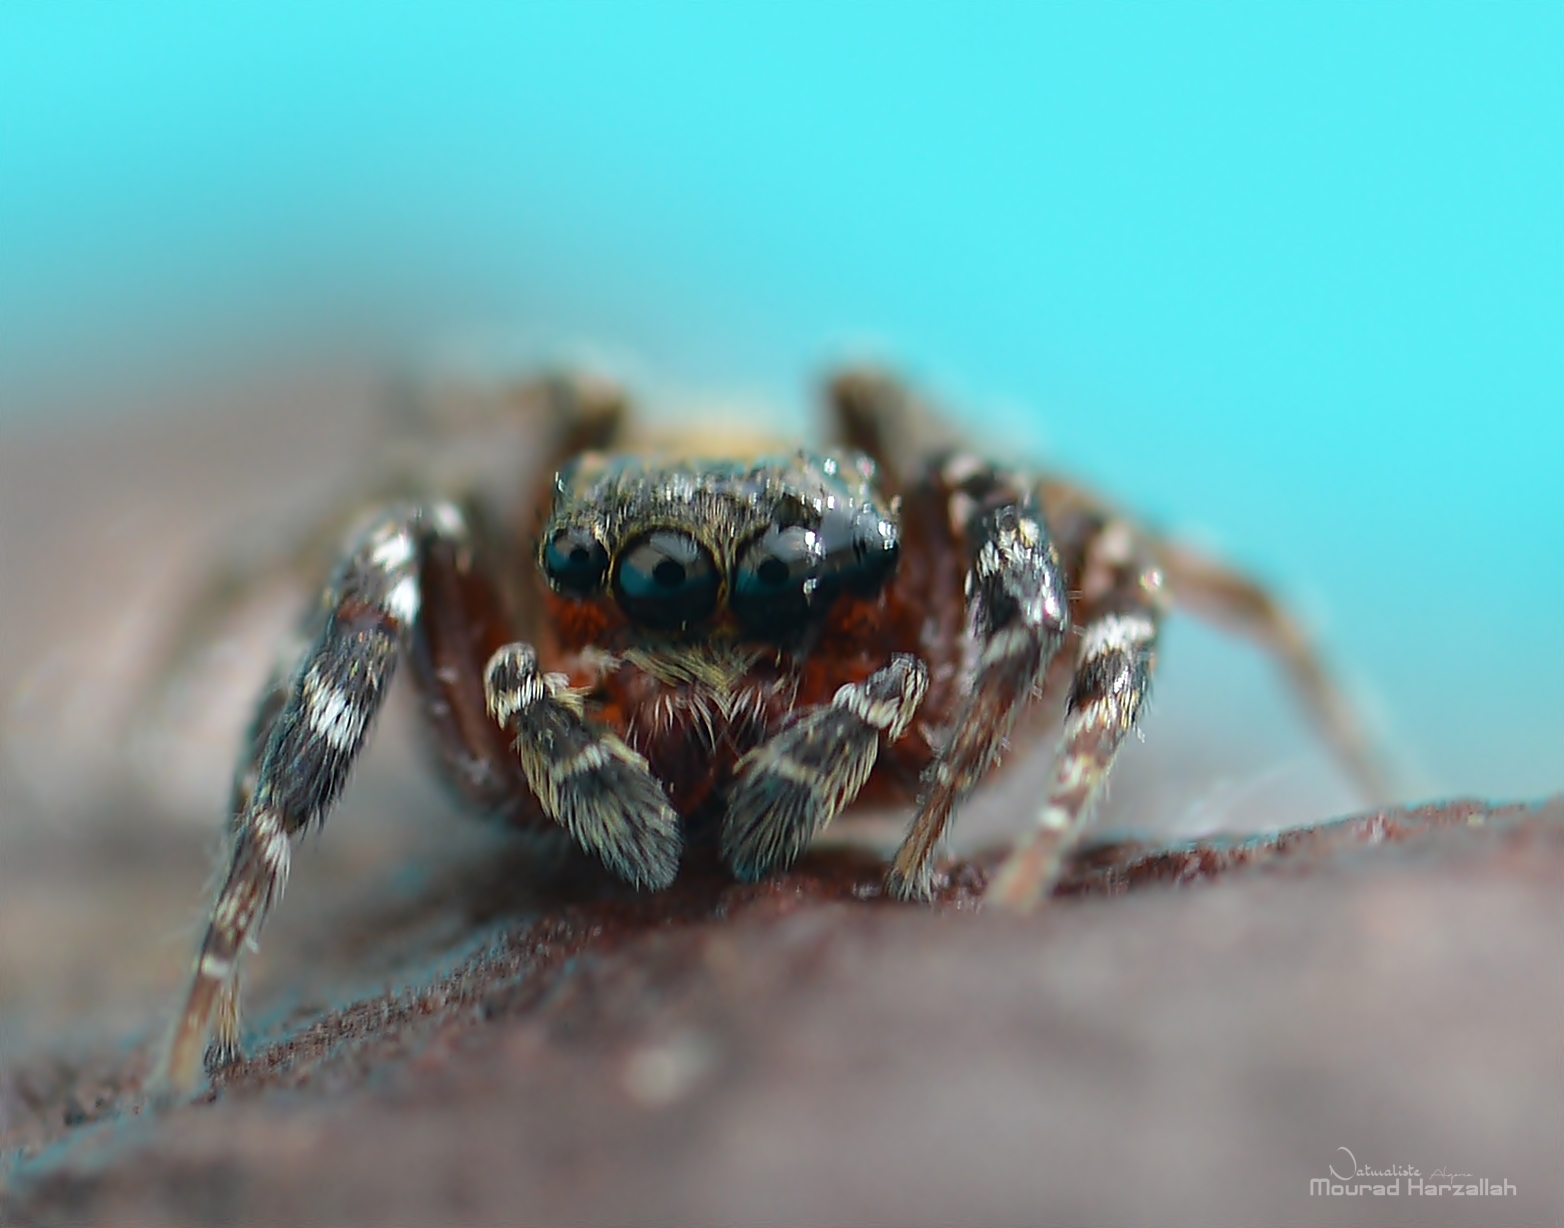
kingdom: Animalia
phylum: Arthropoda
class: Arachnida
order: Araneae
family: Salticidae
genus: Cyrba
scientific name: Cyrba algerina
